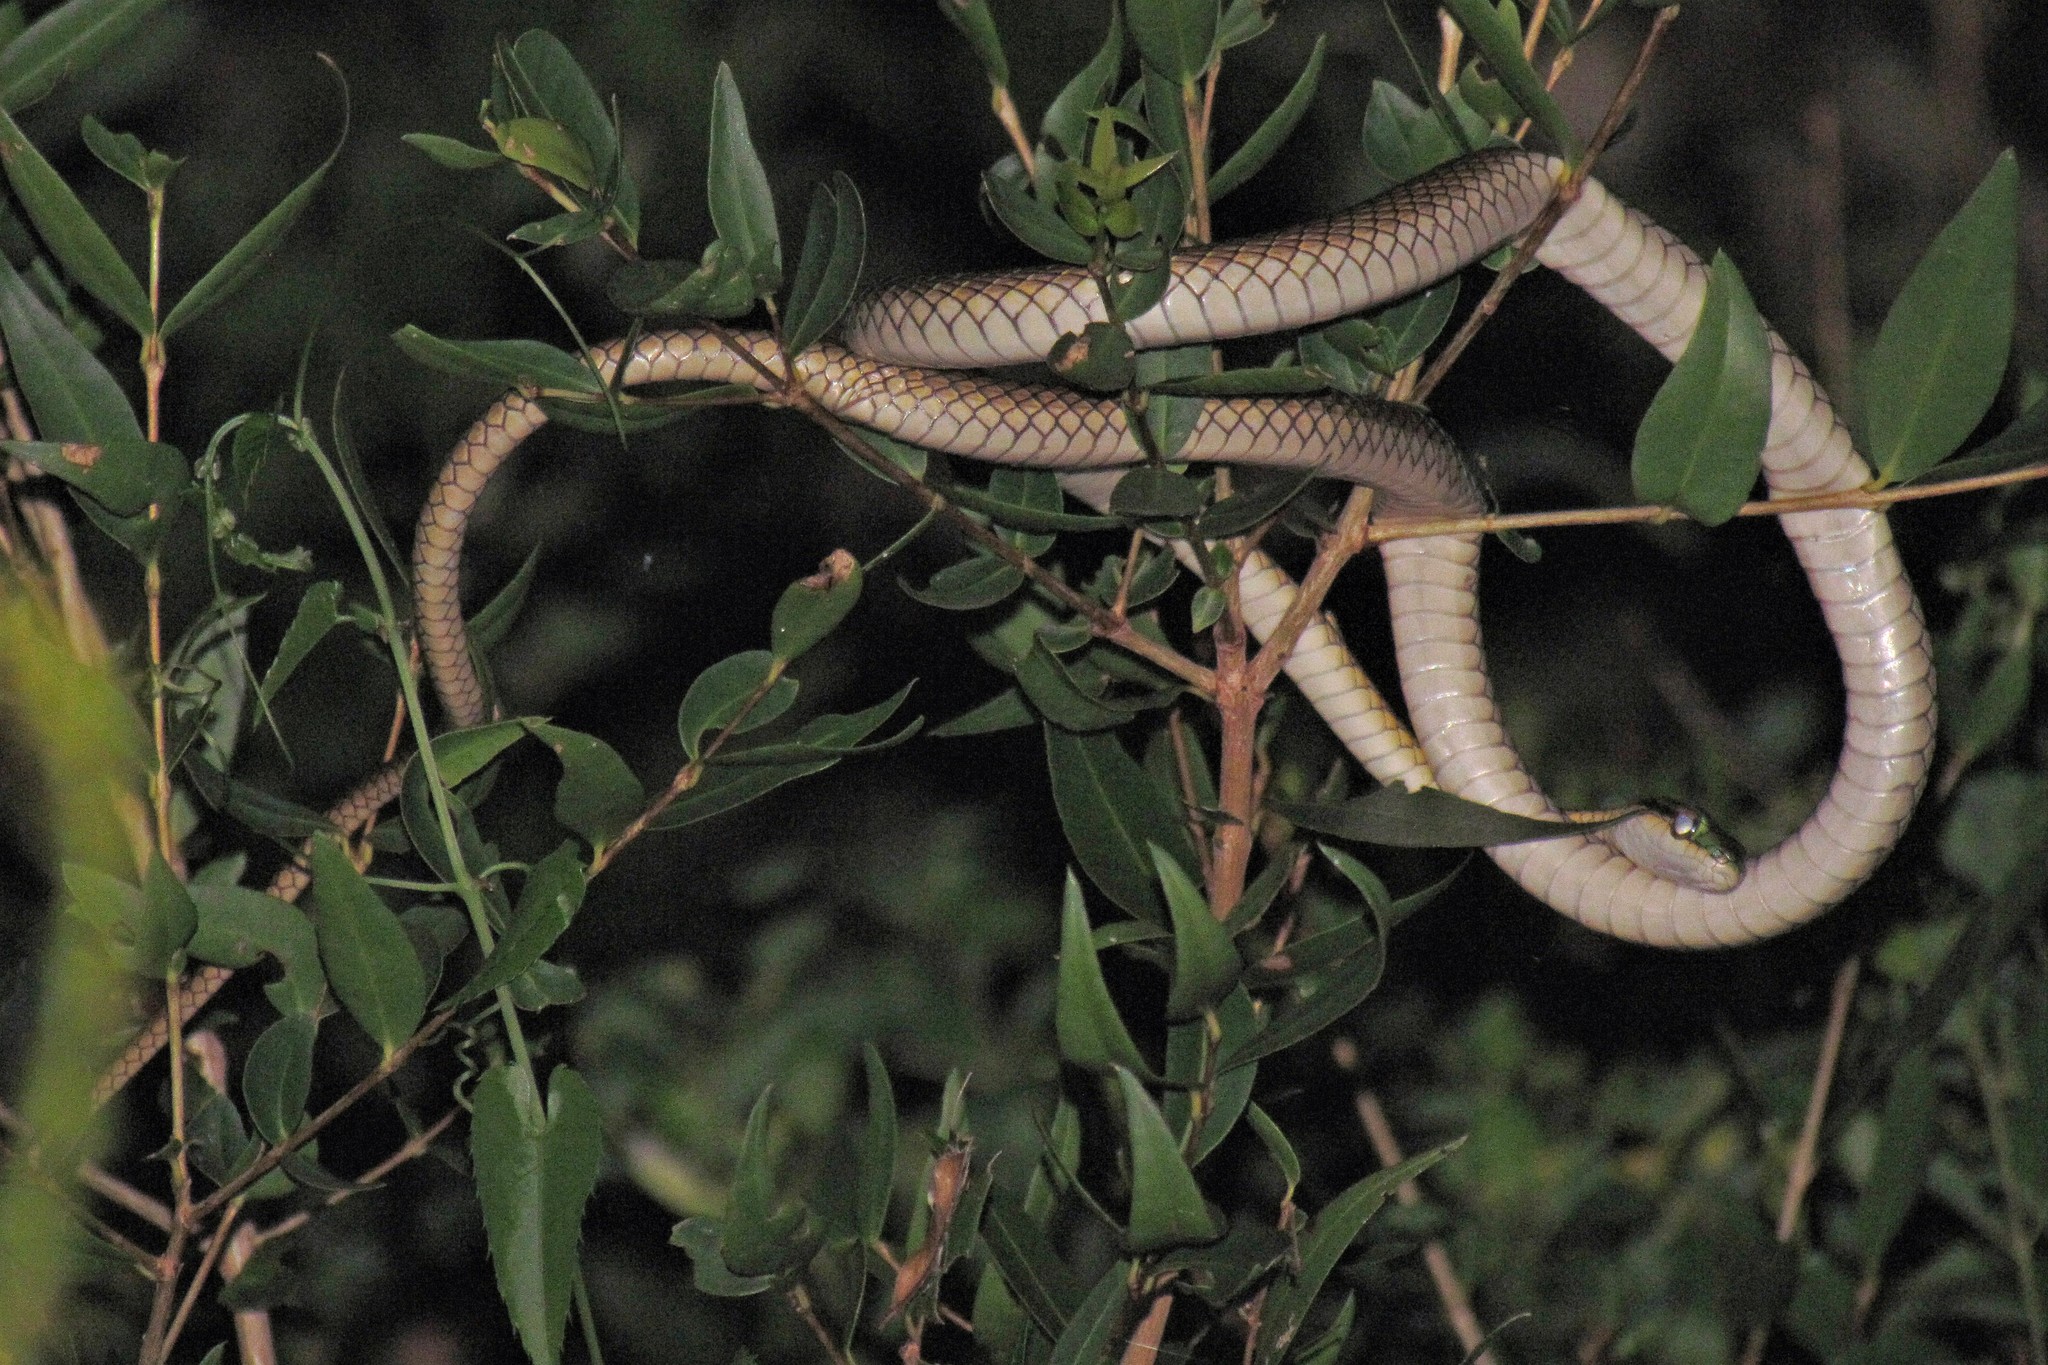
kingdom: Animalia
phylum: Chordata
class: Squamata
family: Colubridae
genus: Leptophis
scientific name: Leptophis ahaetulla
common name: Parrot snake
